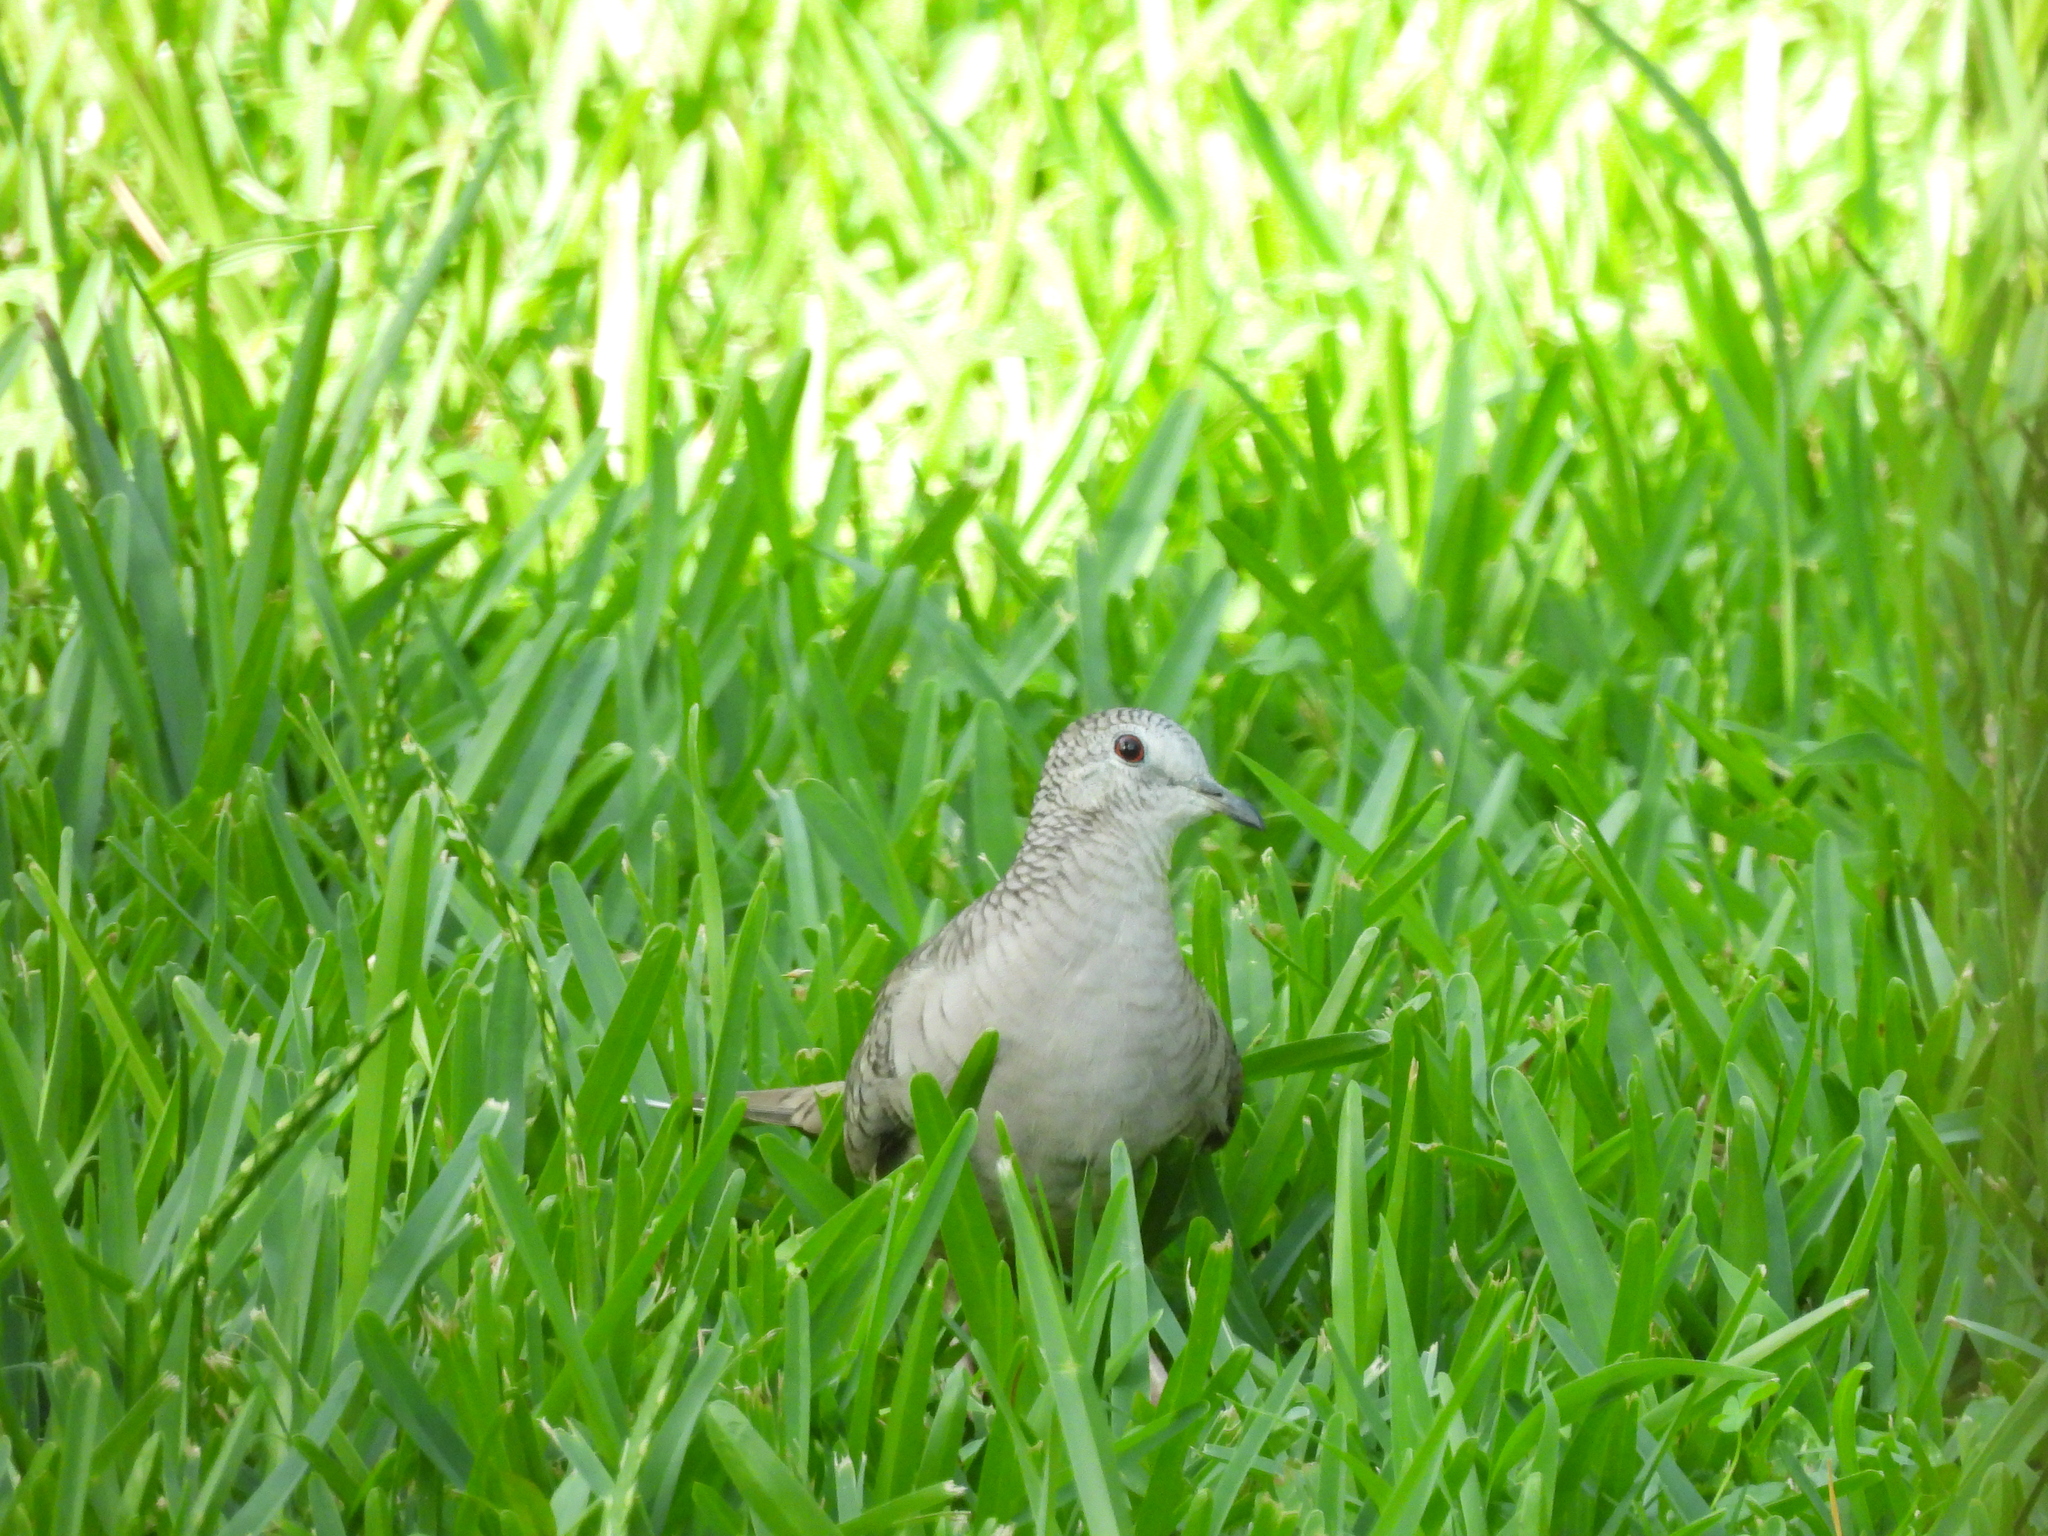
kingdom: Animalia
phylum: Chordata
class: Aves
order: Columbiformes
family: Columbidae
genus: Columbina
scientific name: Columbina inca
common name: Inca dove
